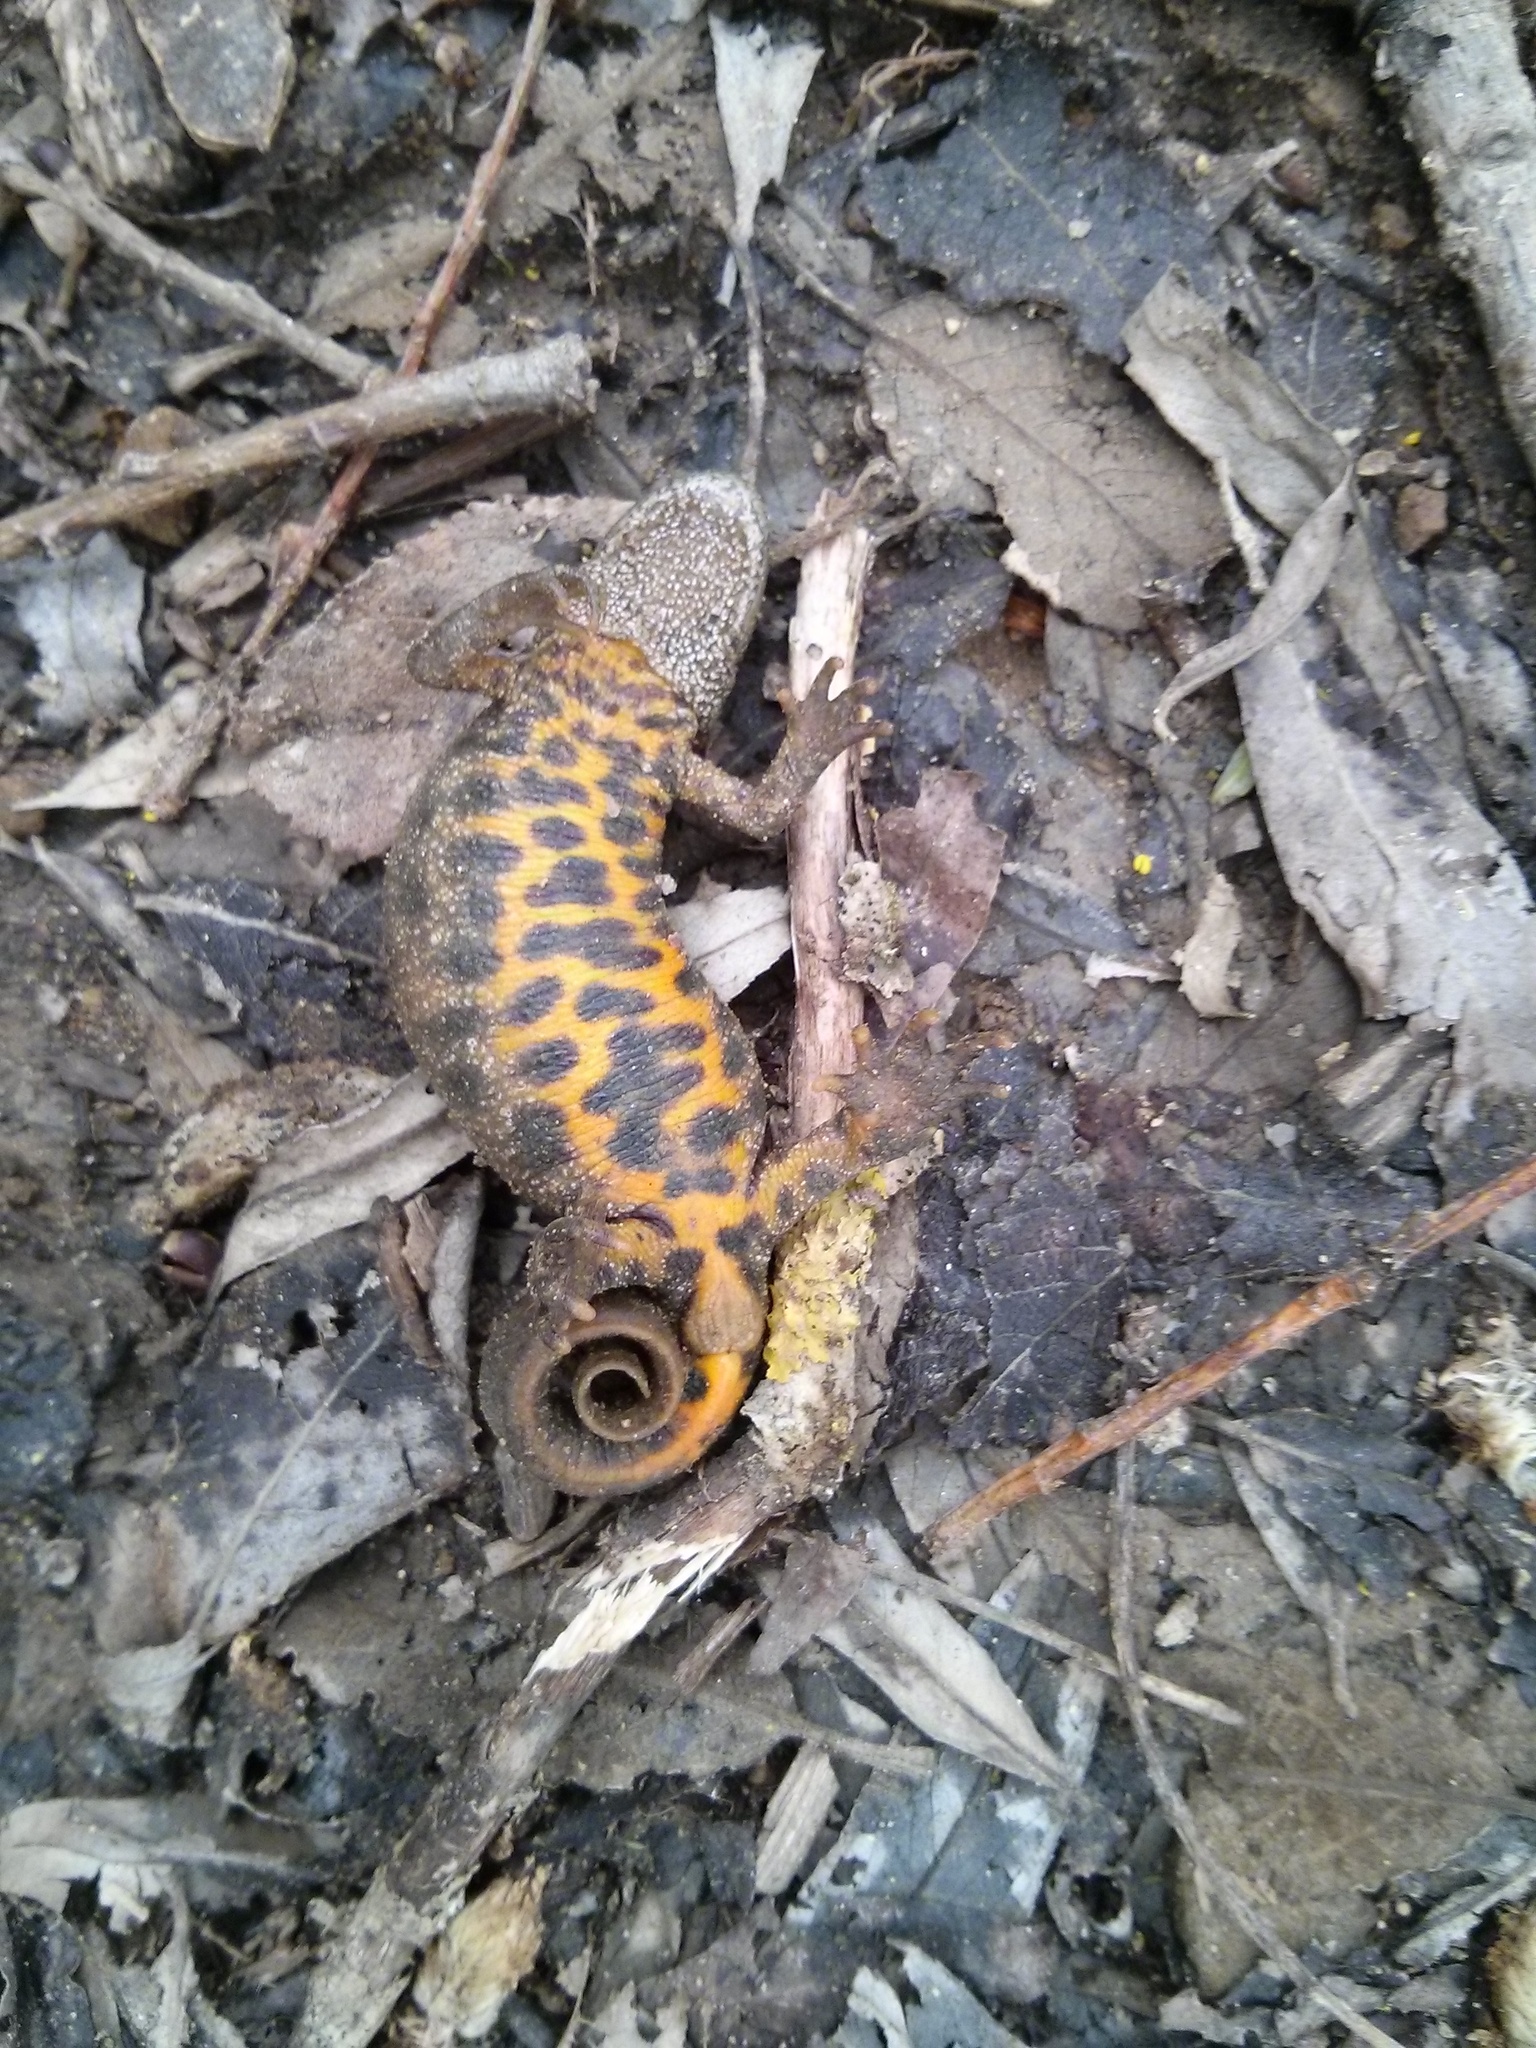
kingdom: Animalia
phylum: Chordata
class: Amphibia
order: Caudata
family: Salamandridae
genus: Triturus
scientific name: Triturus carnifex
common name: Italian crested newt
